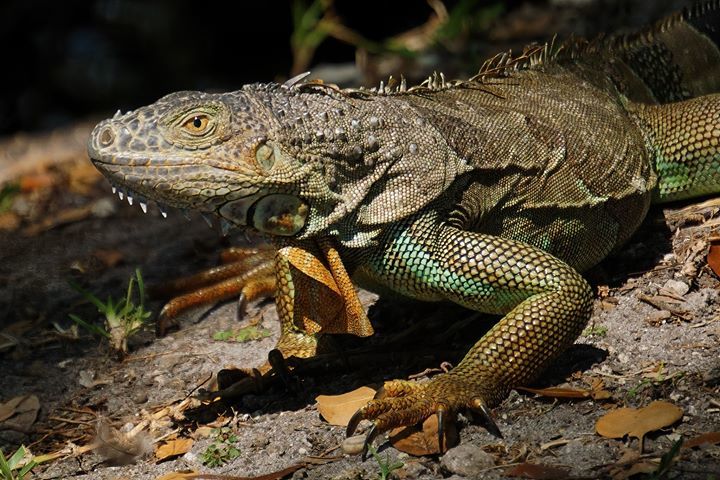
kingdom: Animalia
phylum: Chordata
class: Squamata
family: Iguanidae
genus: Iguana
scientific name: Iguana iguana
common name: Green iguana
